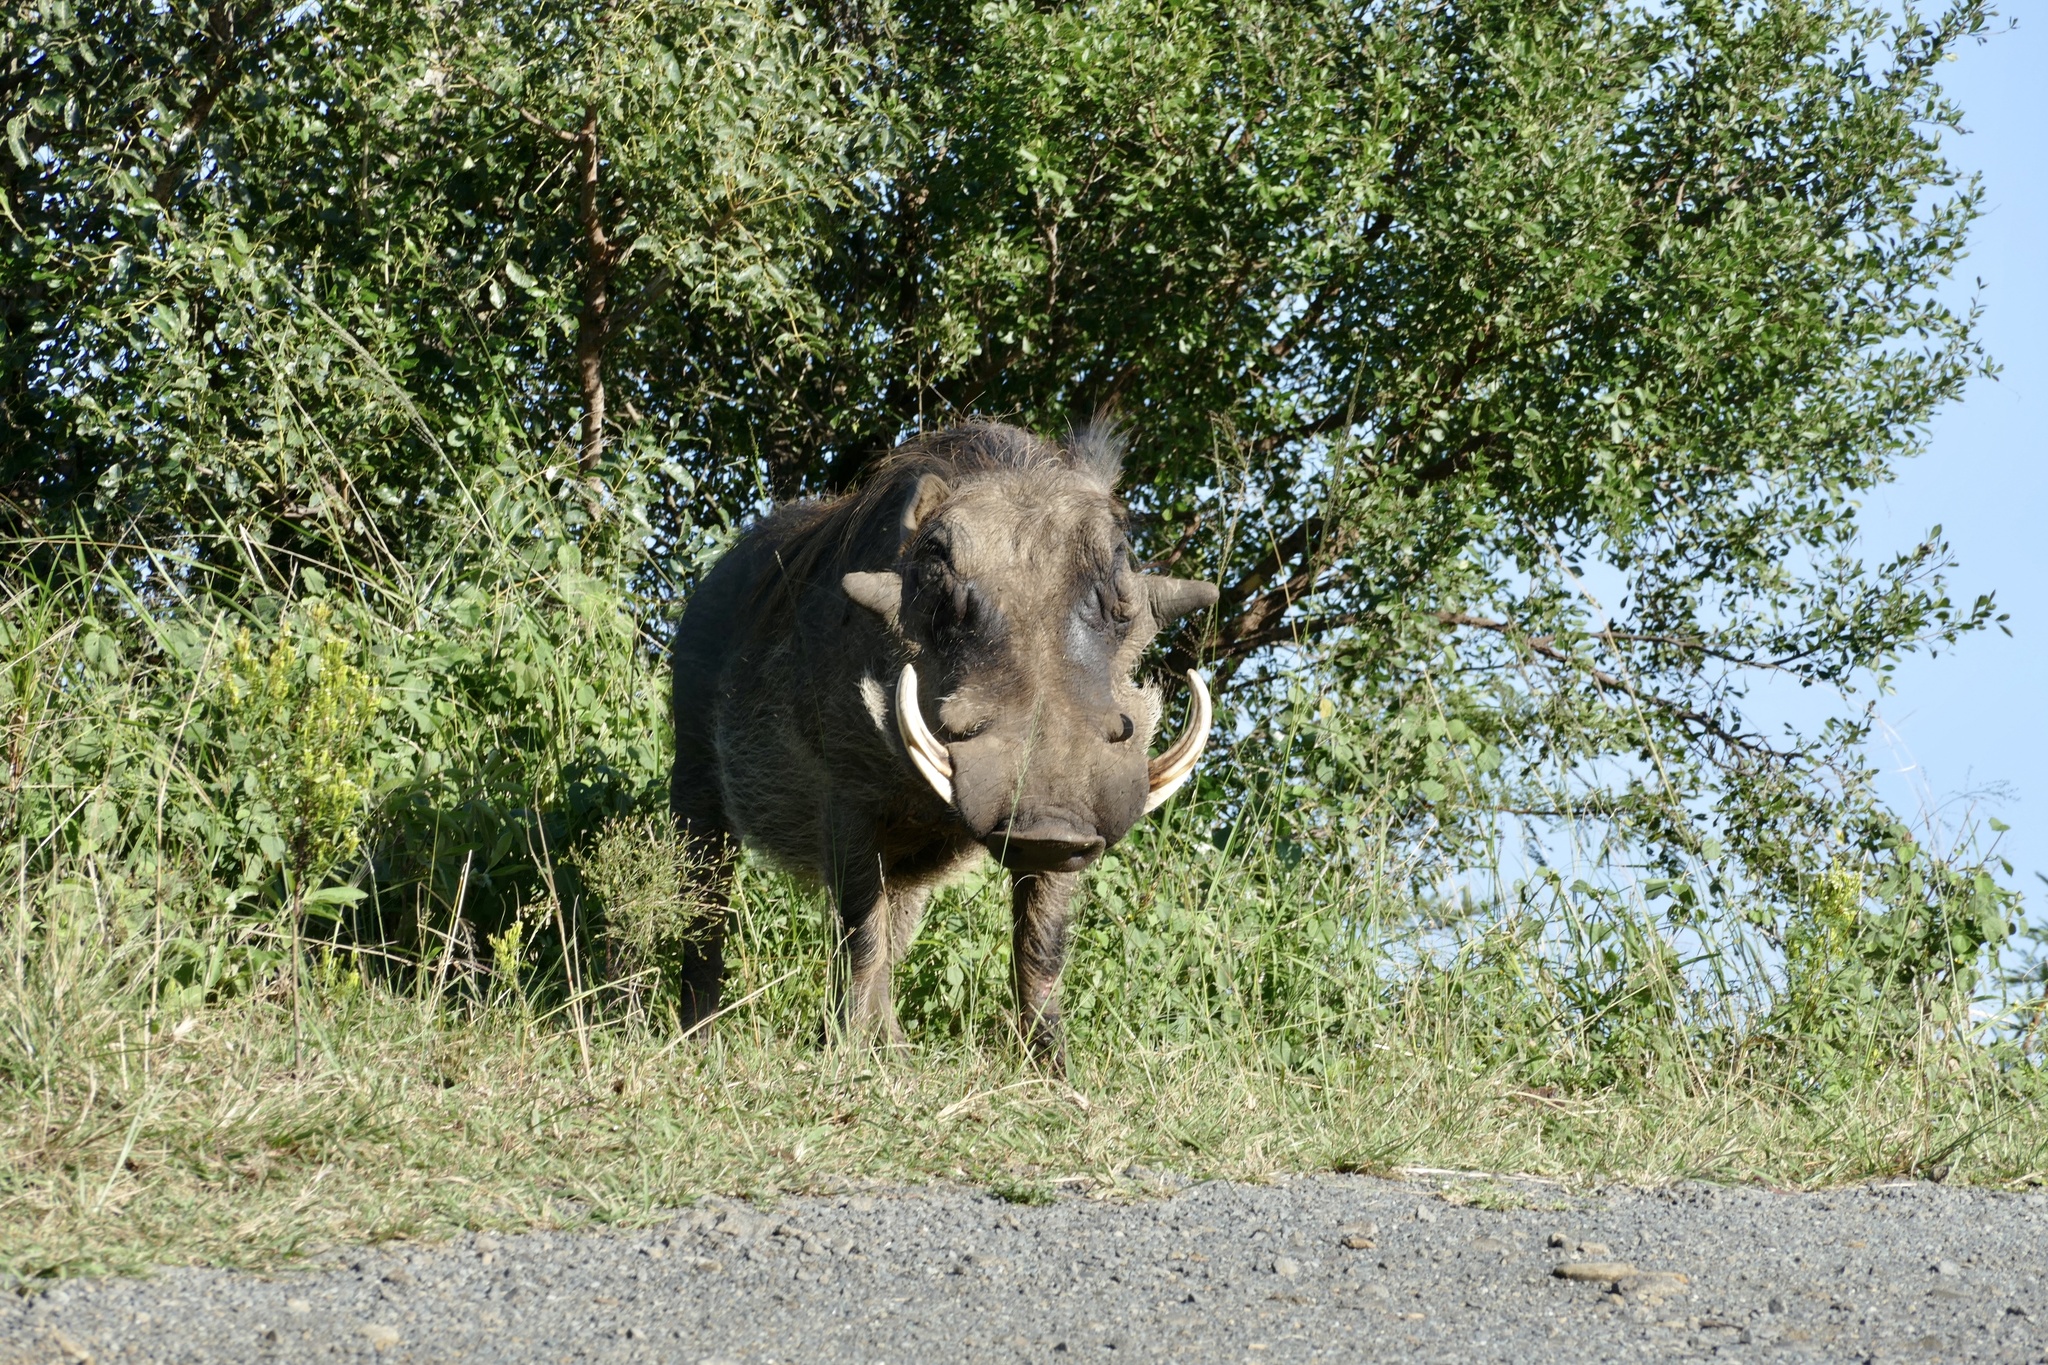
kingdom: Animalia
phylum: Chordata
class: Mammalia
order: Artiodactyla
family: Suidae
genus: Phacochoerus
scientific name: Phacochoerus africanus
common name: Common warthog
